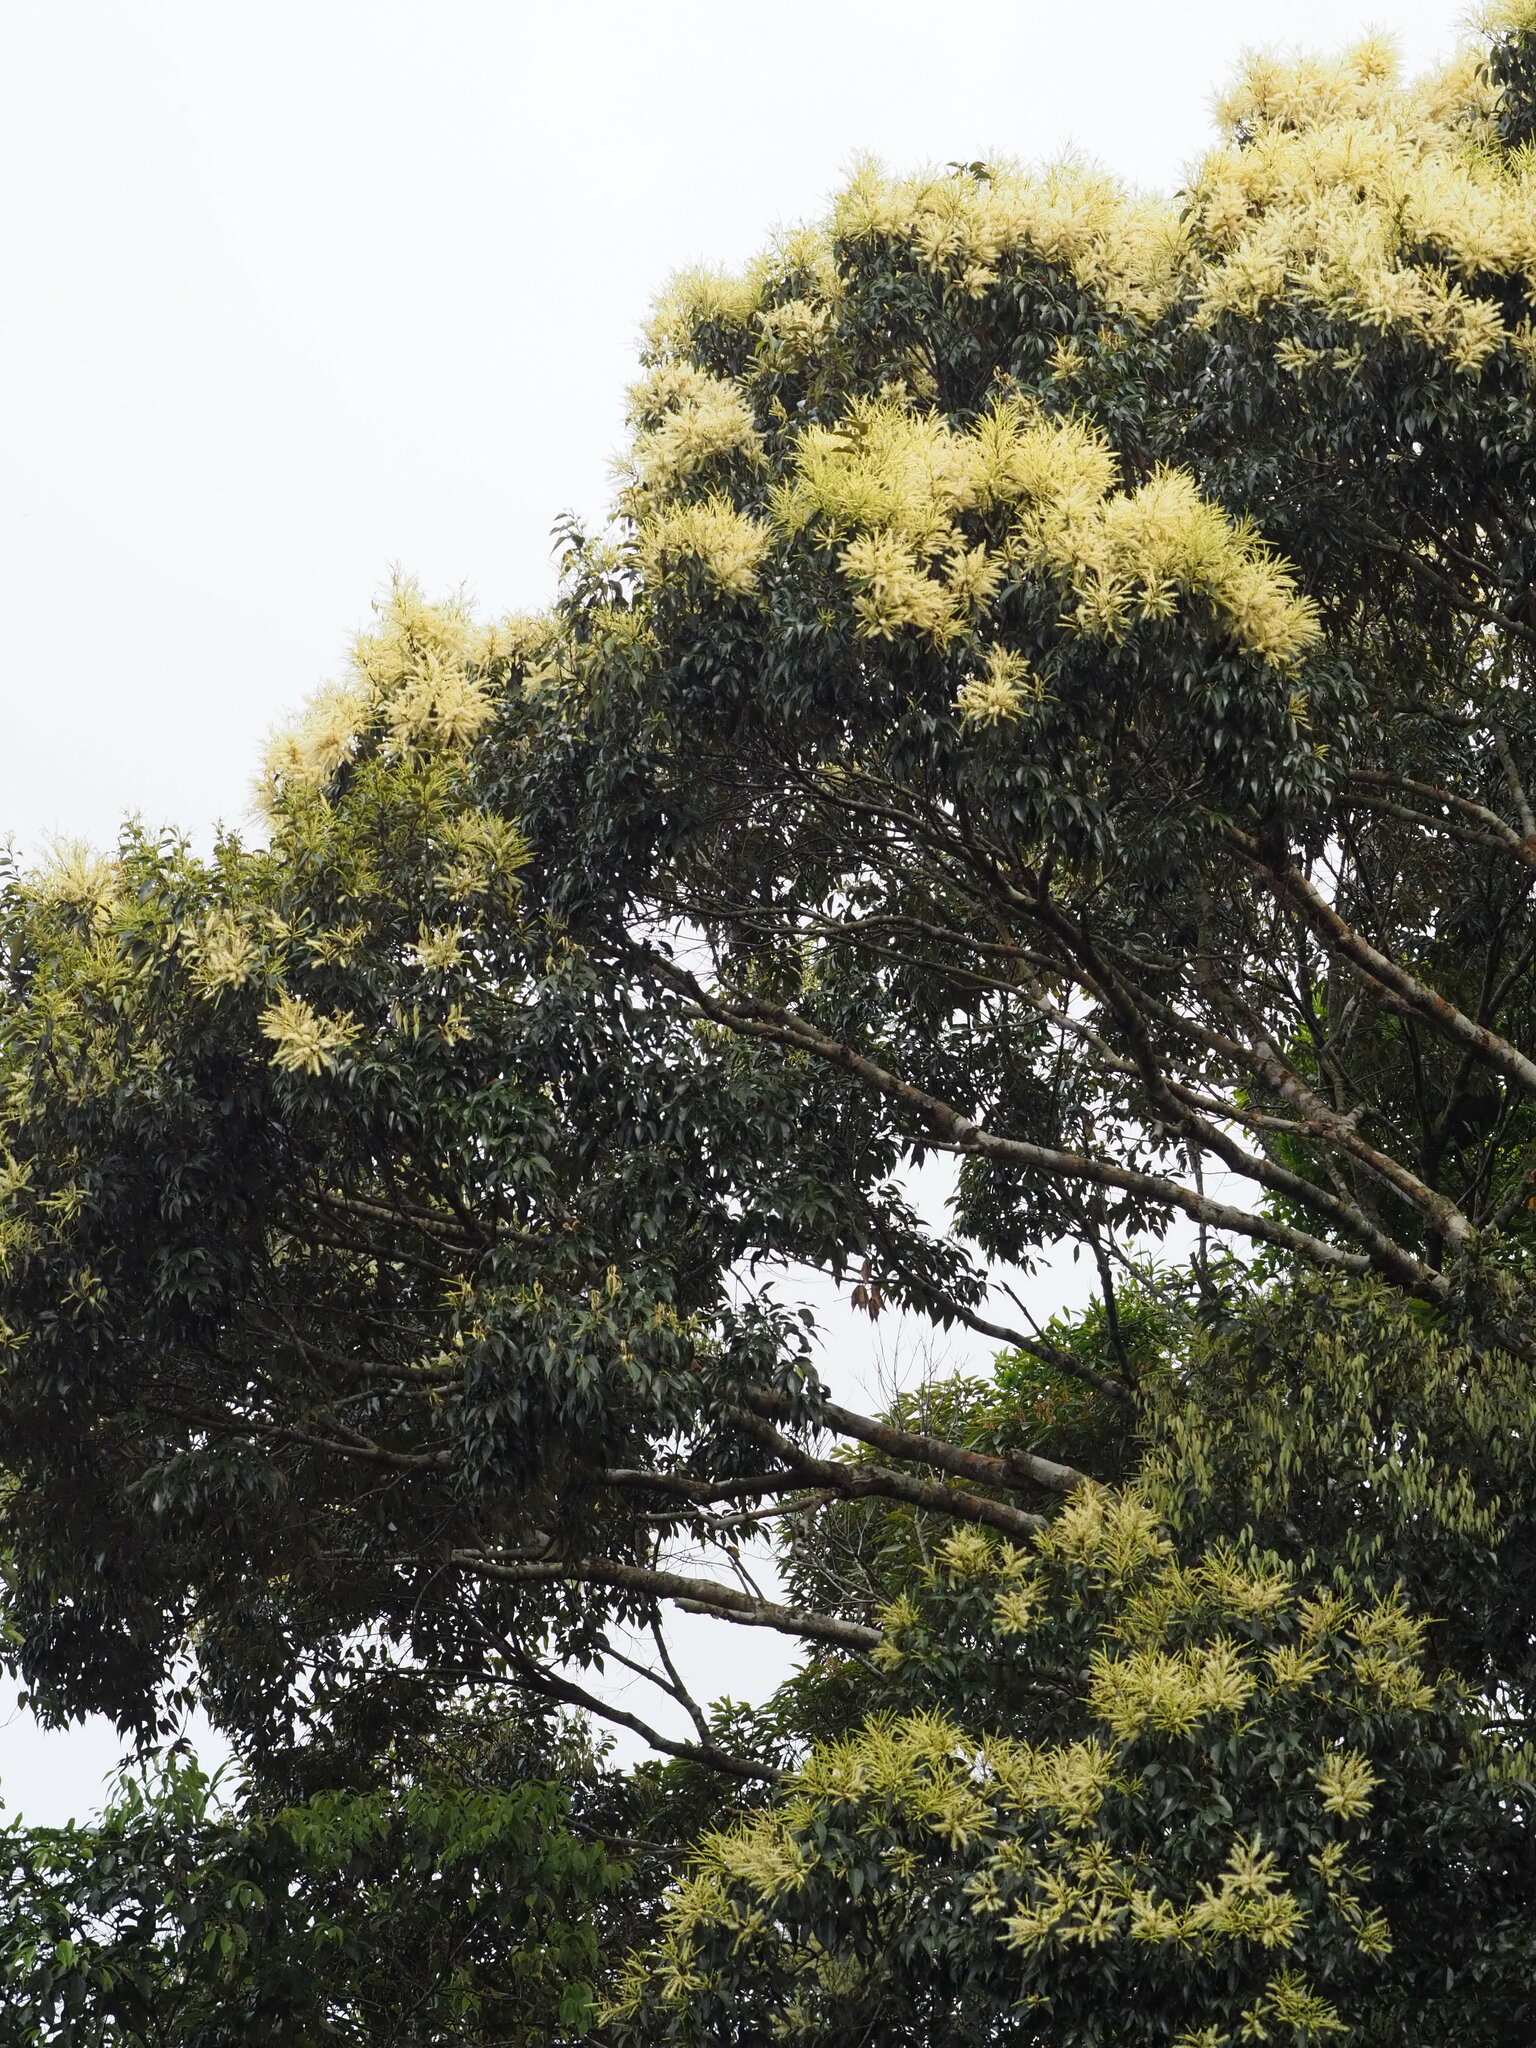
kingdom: Plantae
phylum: Tracheophyta
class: Magnoliopsida
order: Fagales
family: Fagaceae
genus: Castanopsis
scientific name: Castanopsis carlesii
